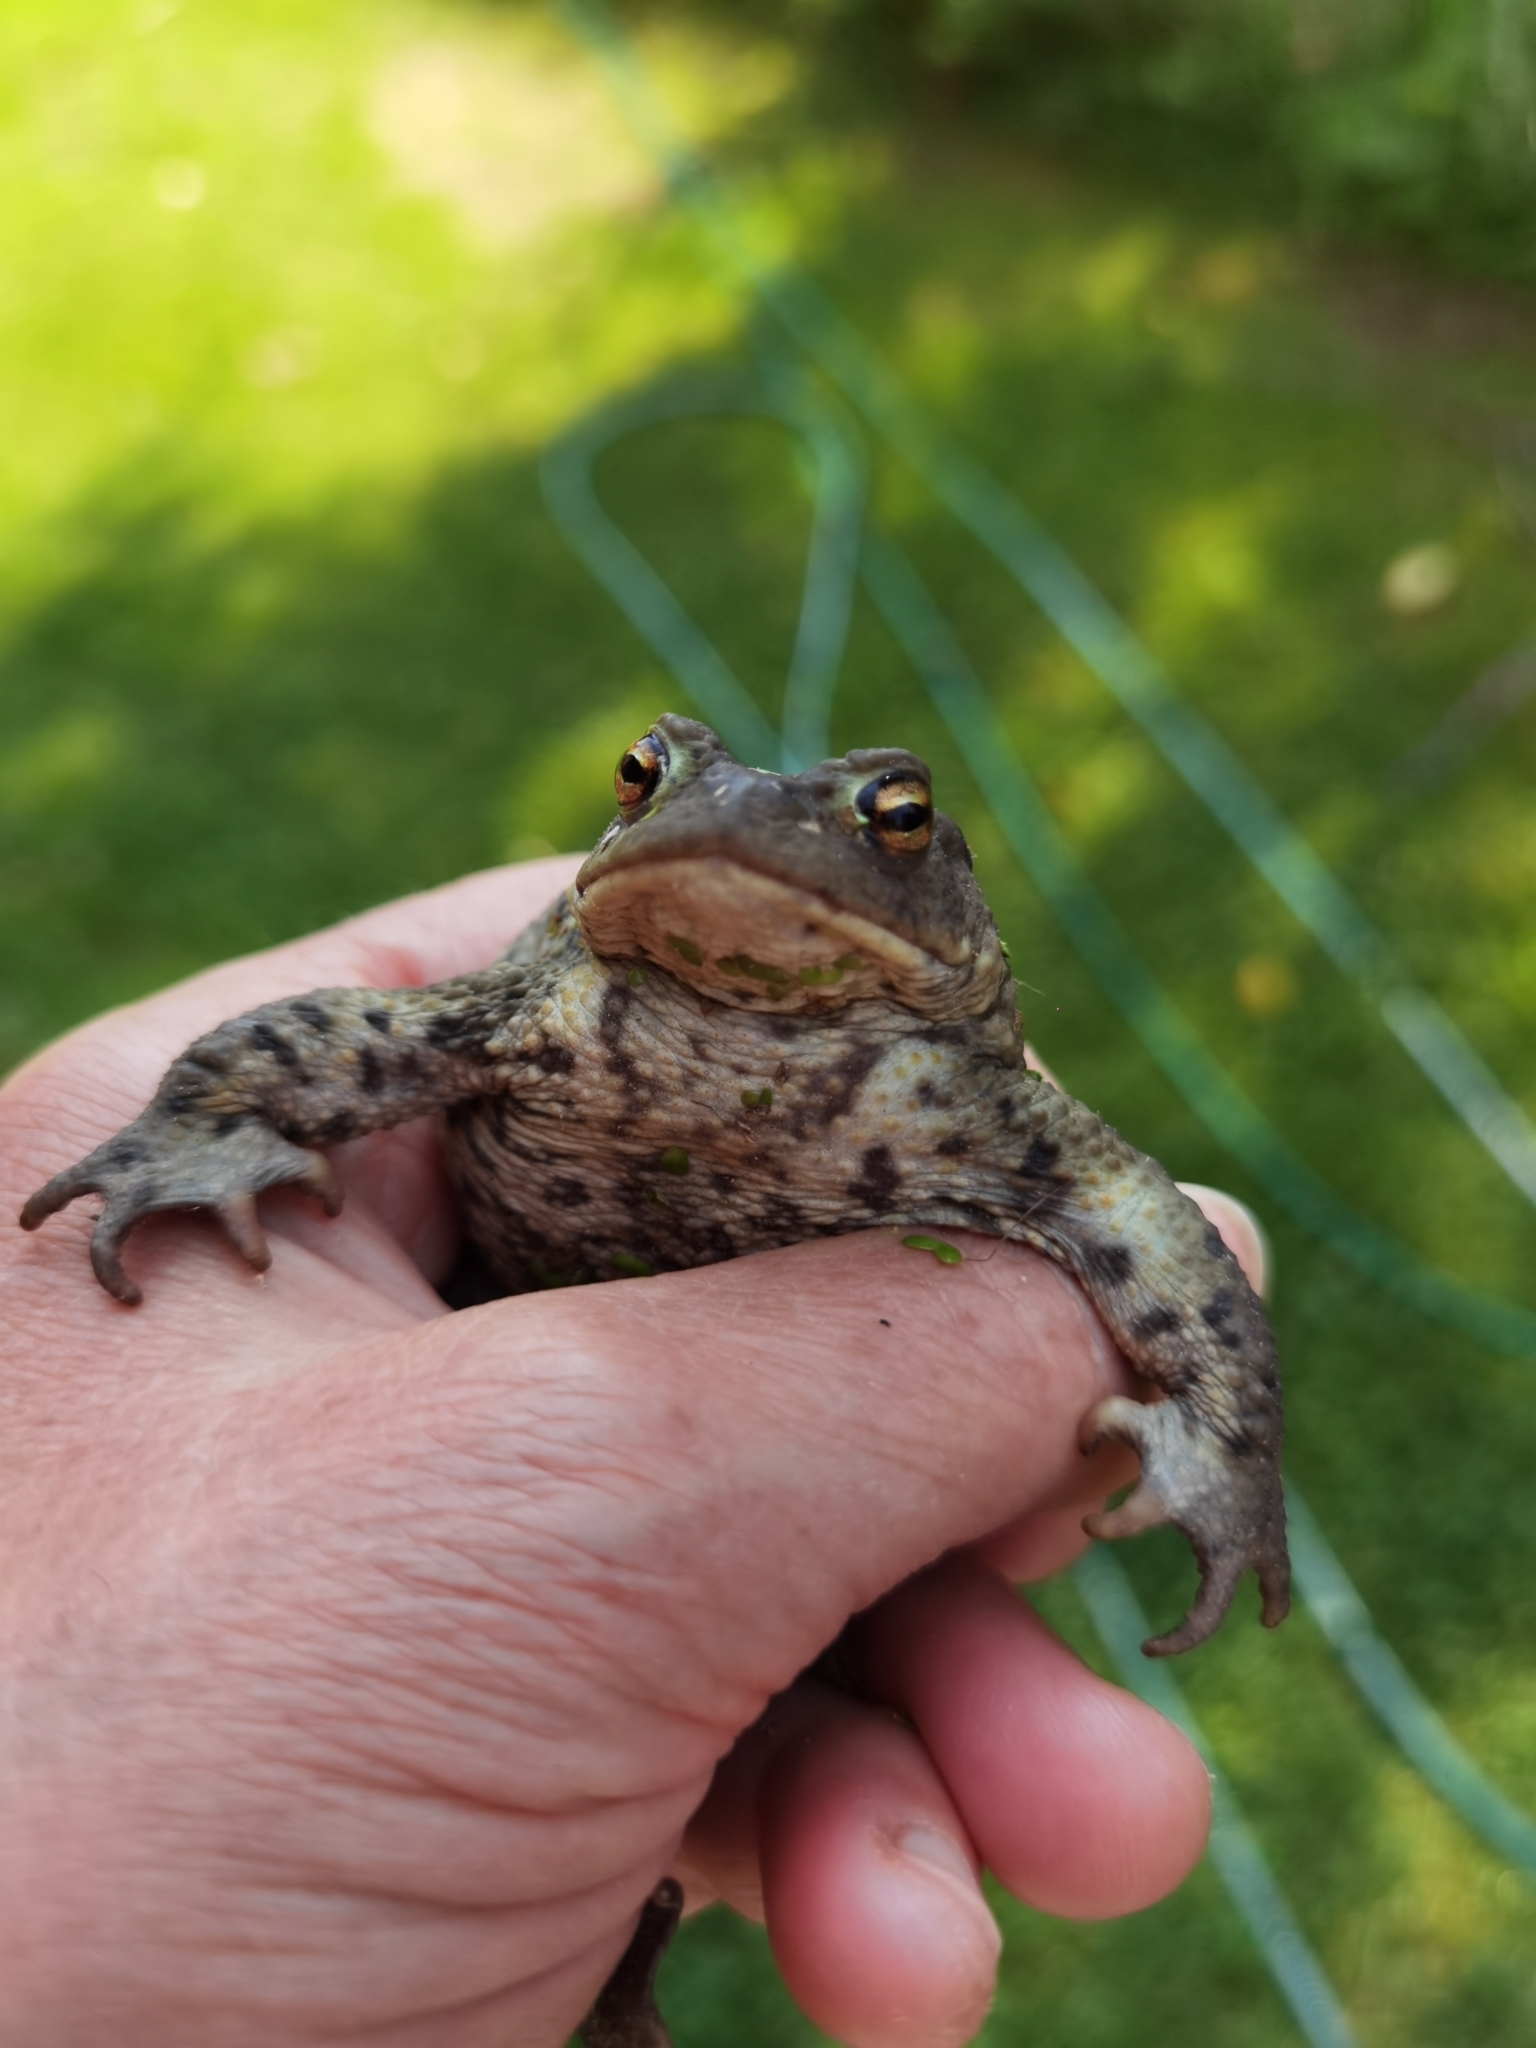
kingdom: Animalia
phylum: Chordata
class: Amphibia
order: Anura
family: Bufonidae
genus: Bufo
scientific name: Bufo bufo
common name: Common toad
